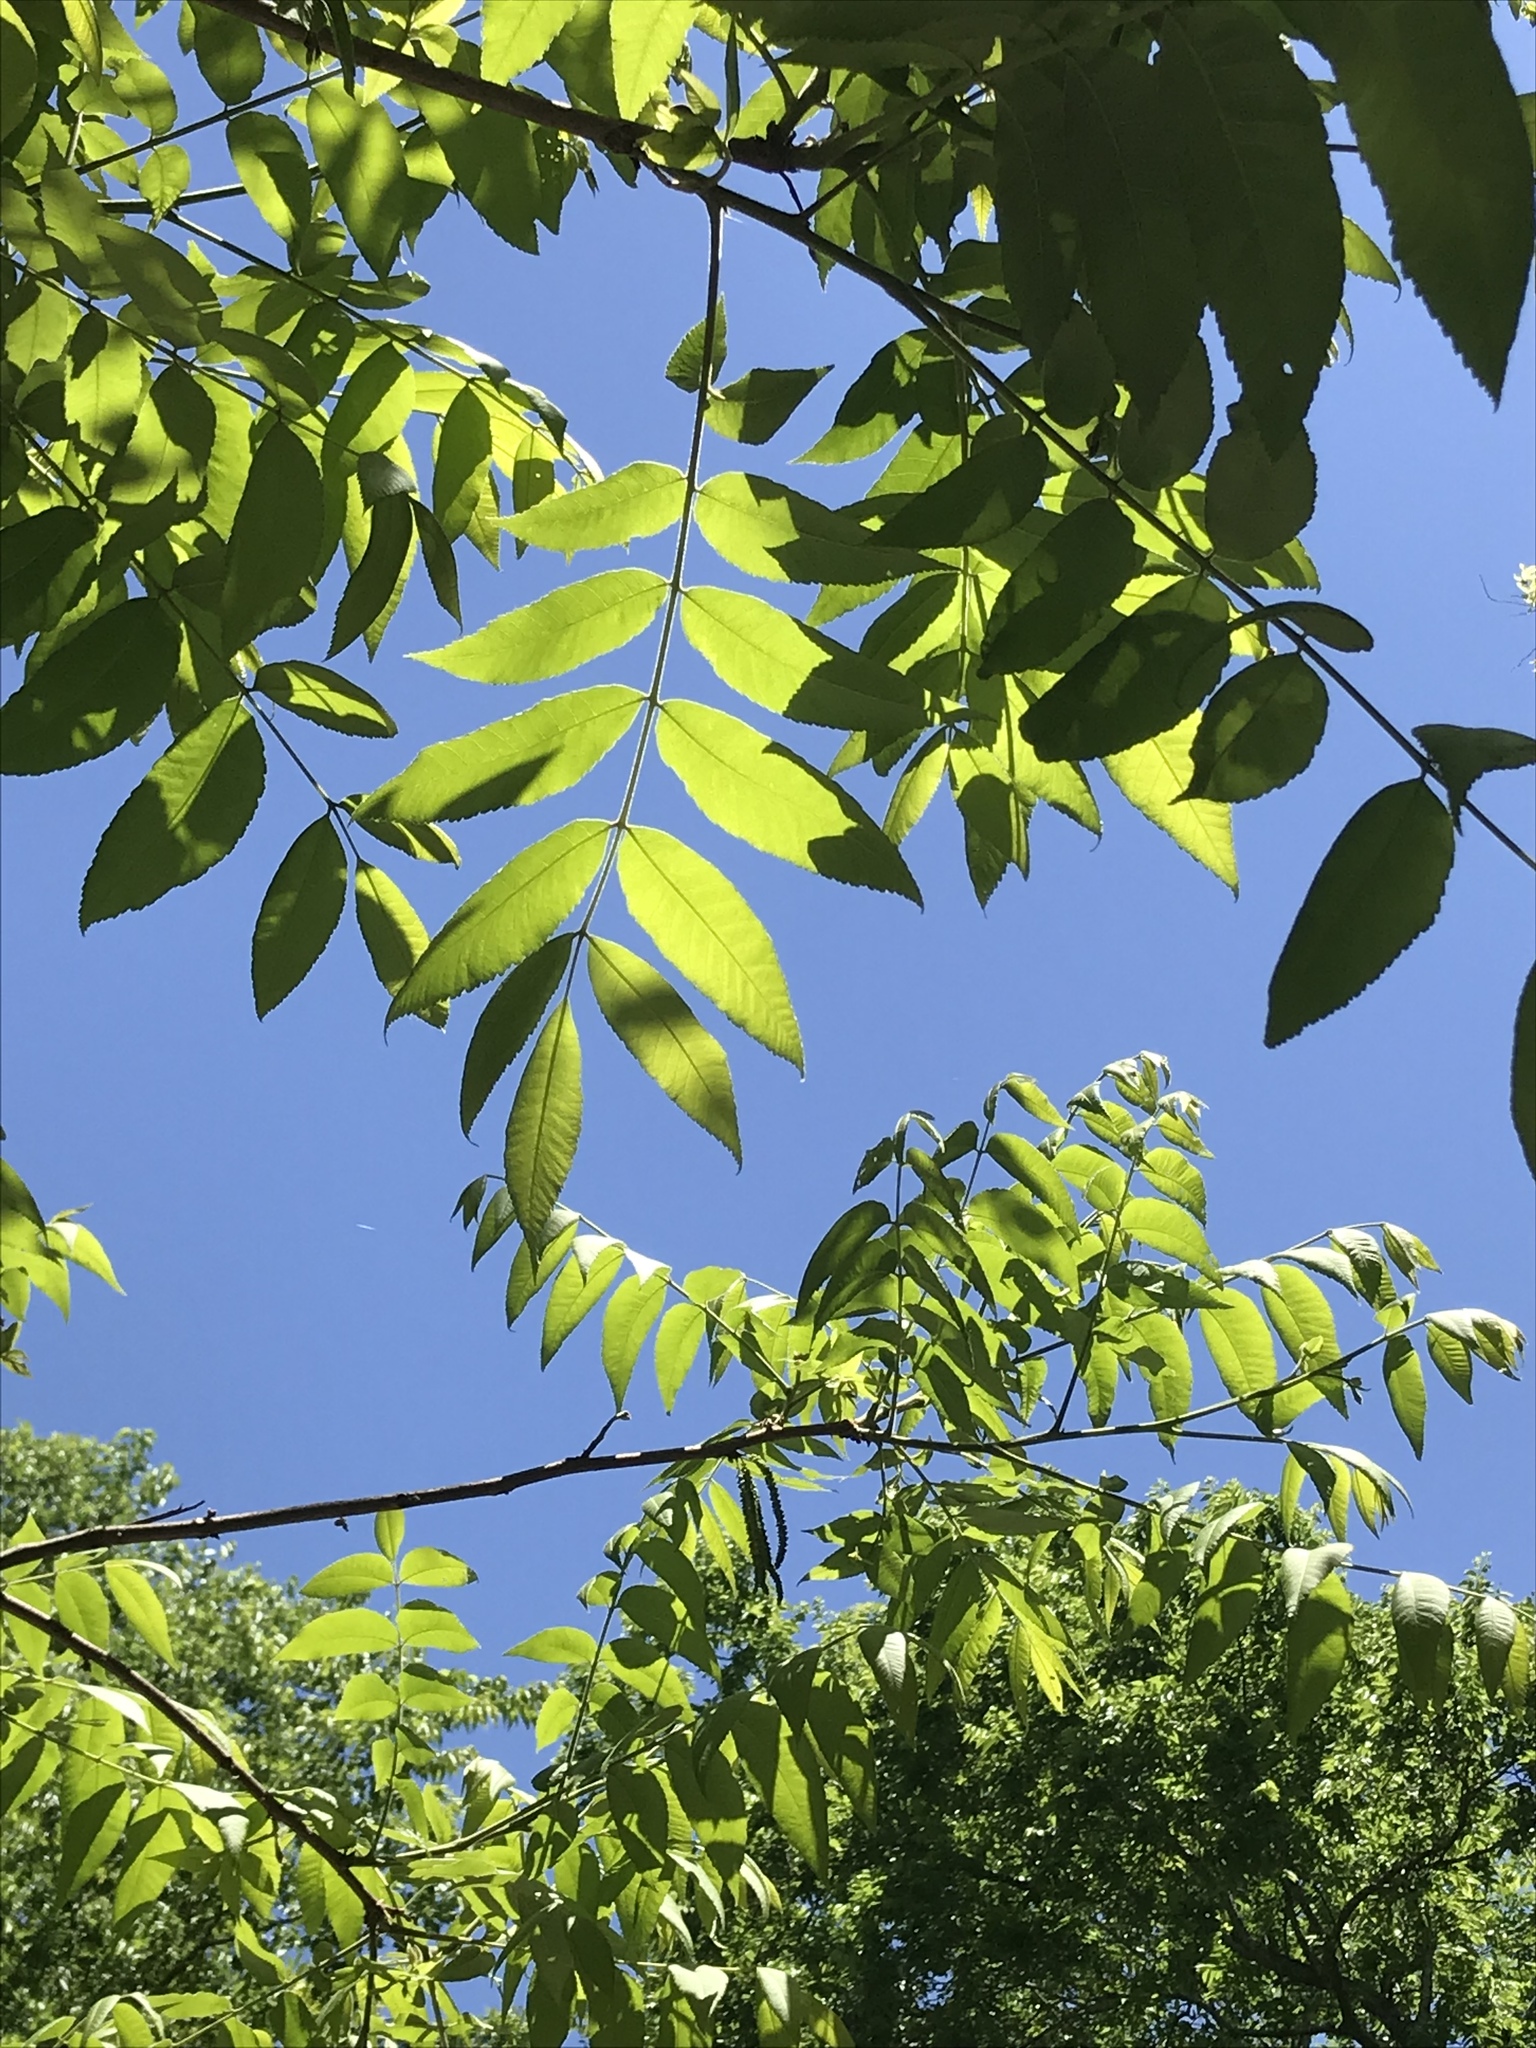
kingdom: Plantae
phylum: Tracheophyta
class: Magnoliopsida
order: Fagales
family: Juglandaceae
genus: Carya
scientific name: Carya illinoinensis
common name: Pecan
